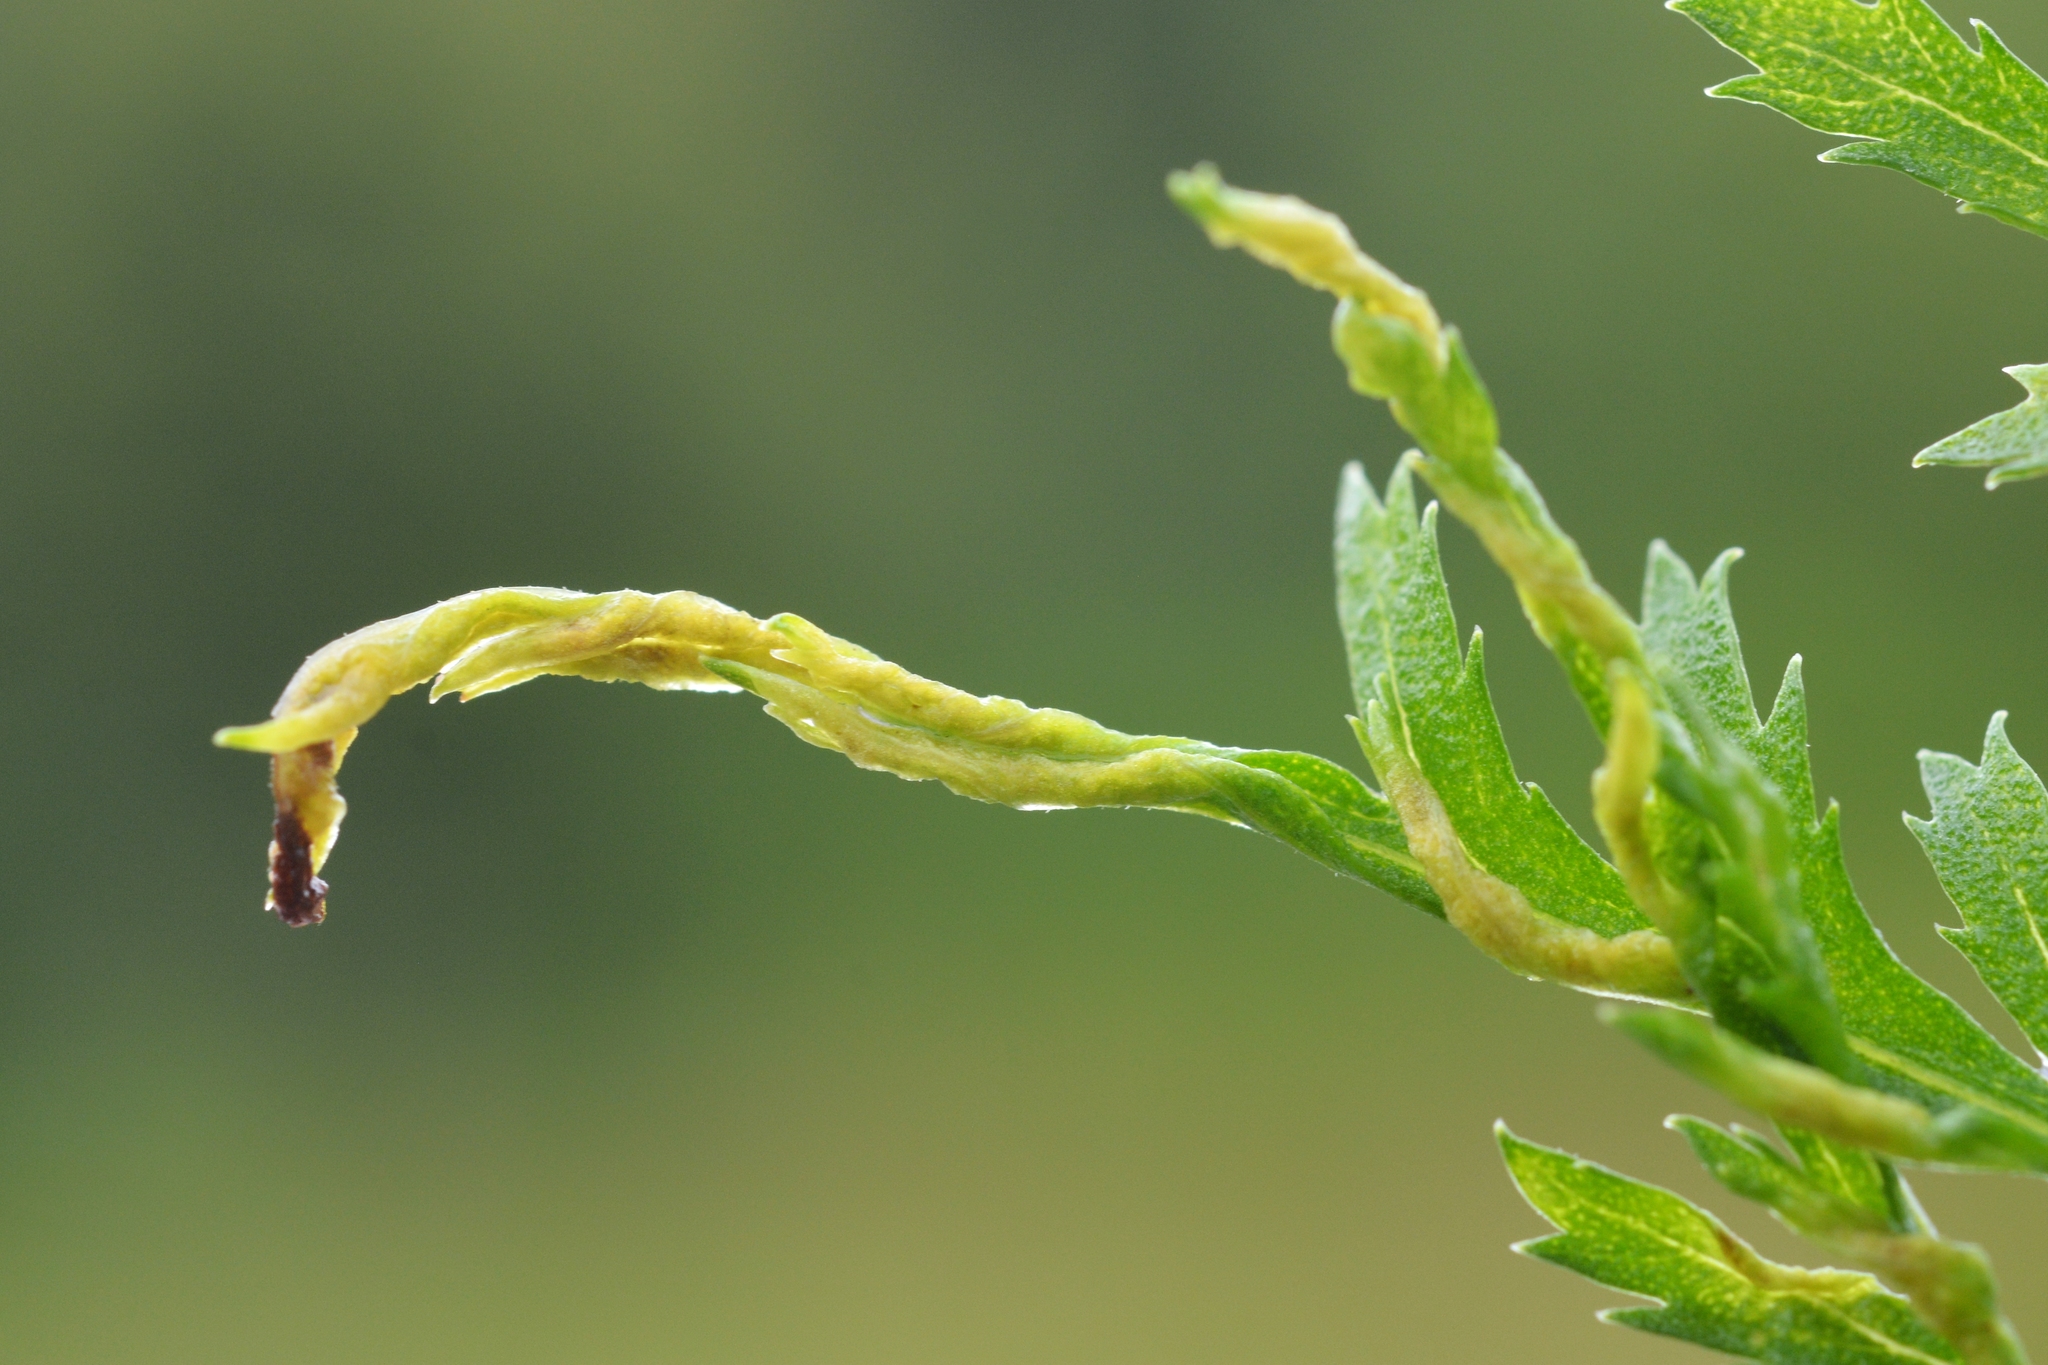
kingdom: Animalia
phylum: Arthropoda
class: Arachnida
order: Trombidiformes
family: Eriophyidae
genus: Aceria
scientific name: Aceria tuberculata
